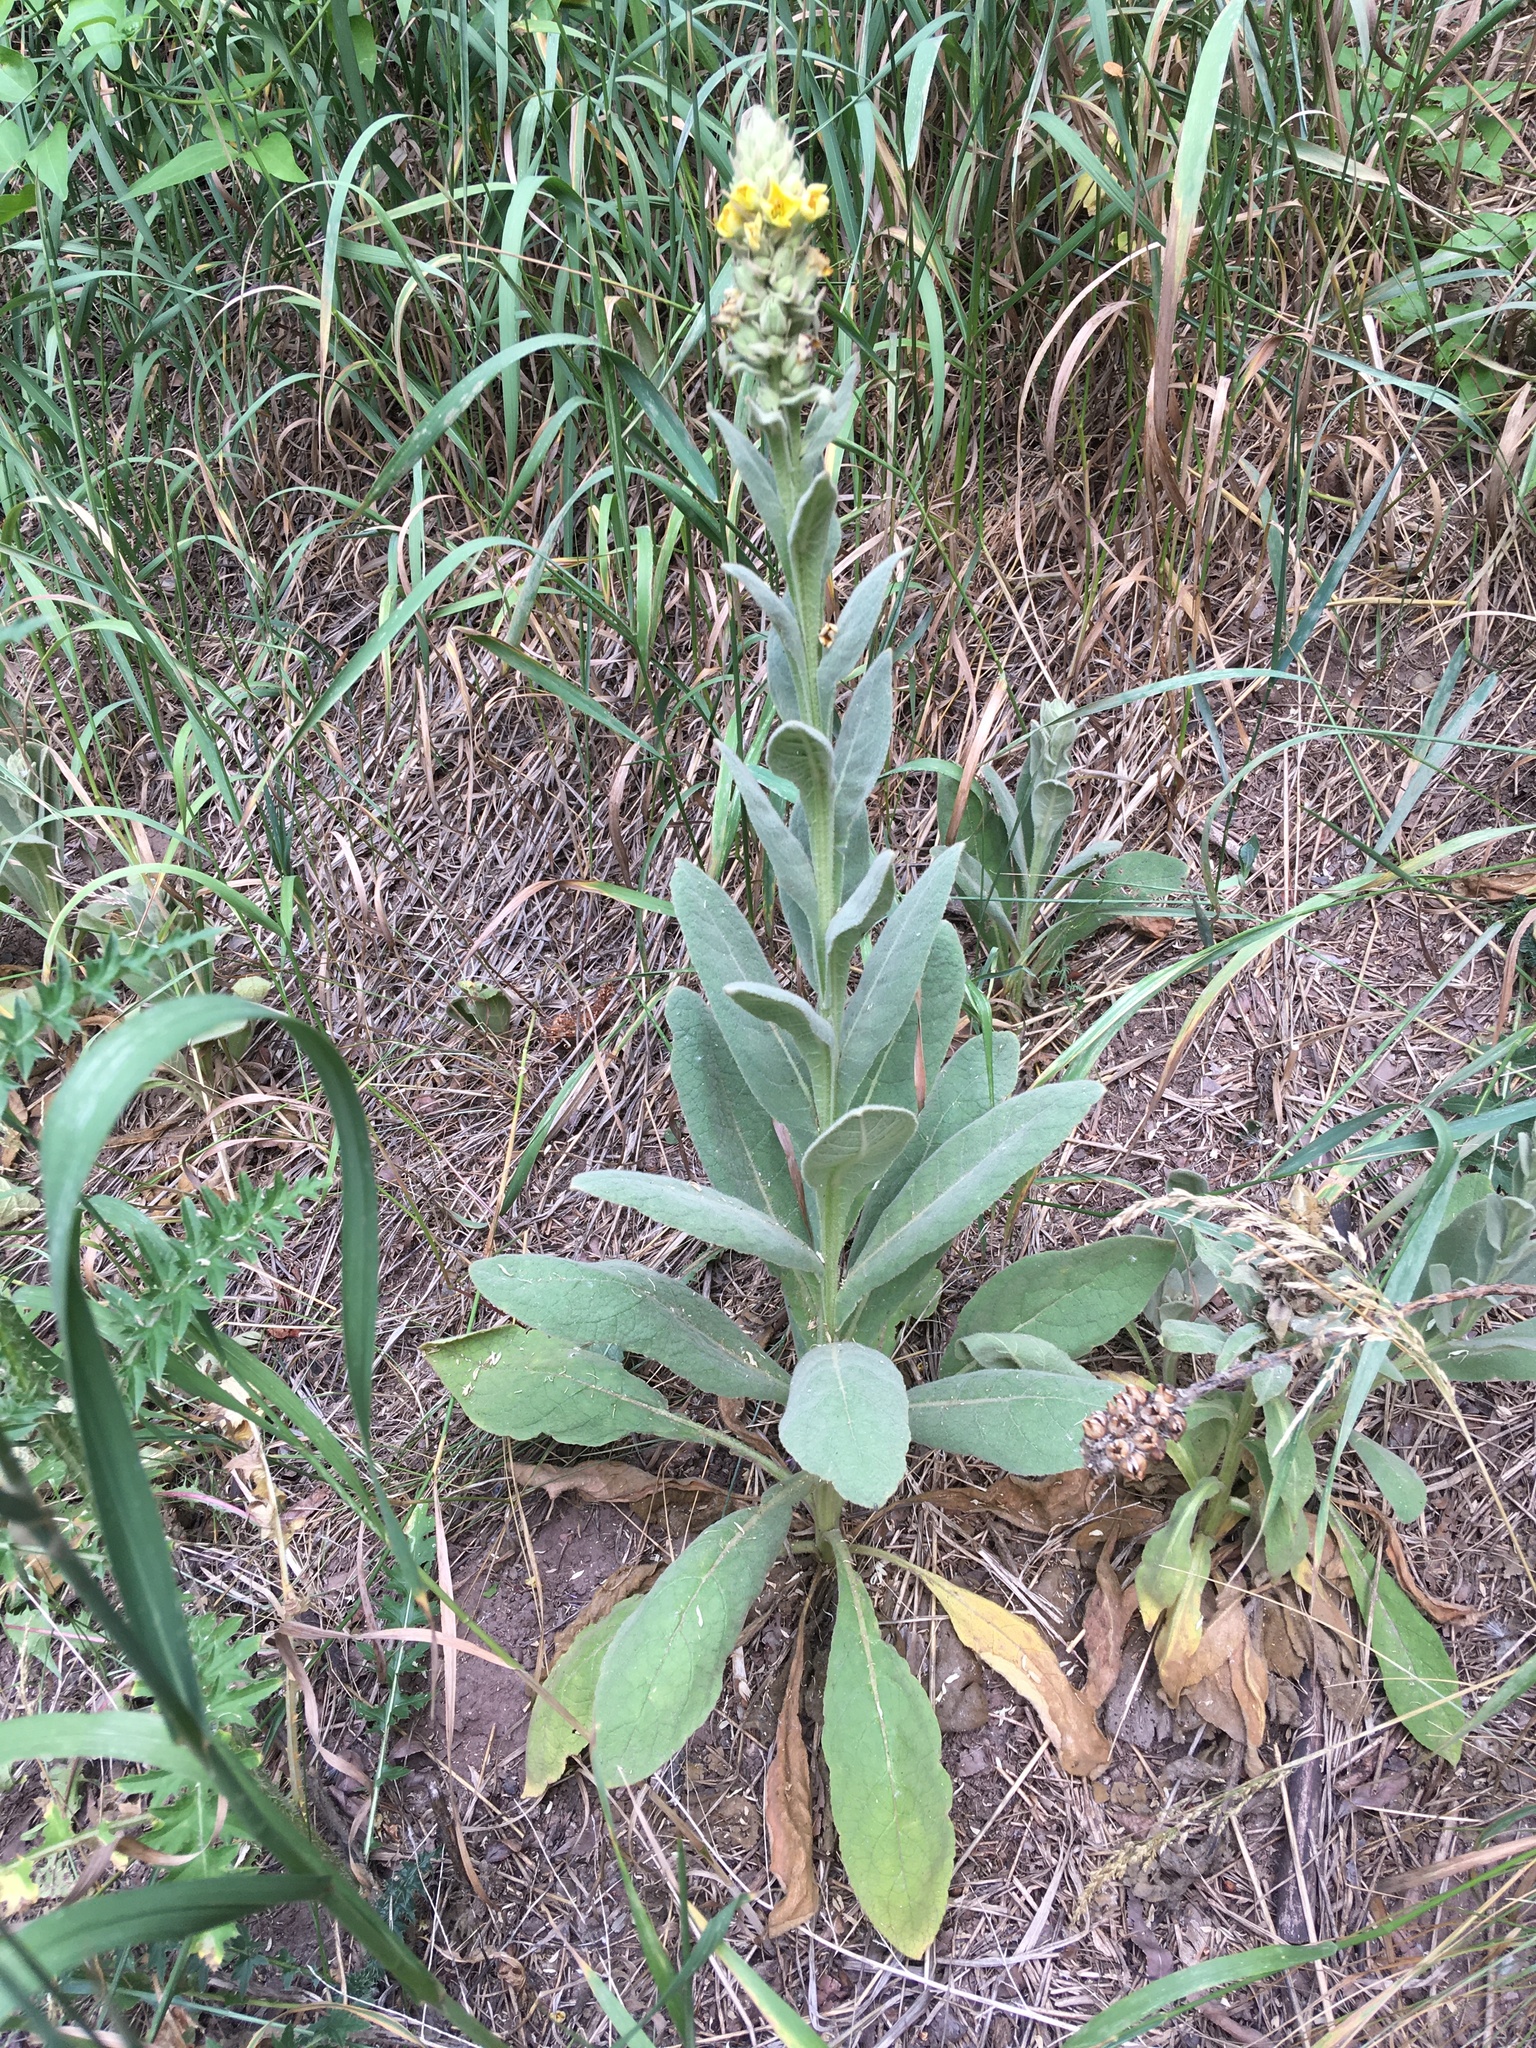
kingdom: Plantae
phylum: Tracheophyta
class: Magnoliopsida
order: Lamiales
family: Scrophulariaceae
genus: Verbascum
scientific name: Verbascum thapsus
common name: Common mullein
